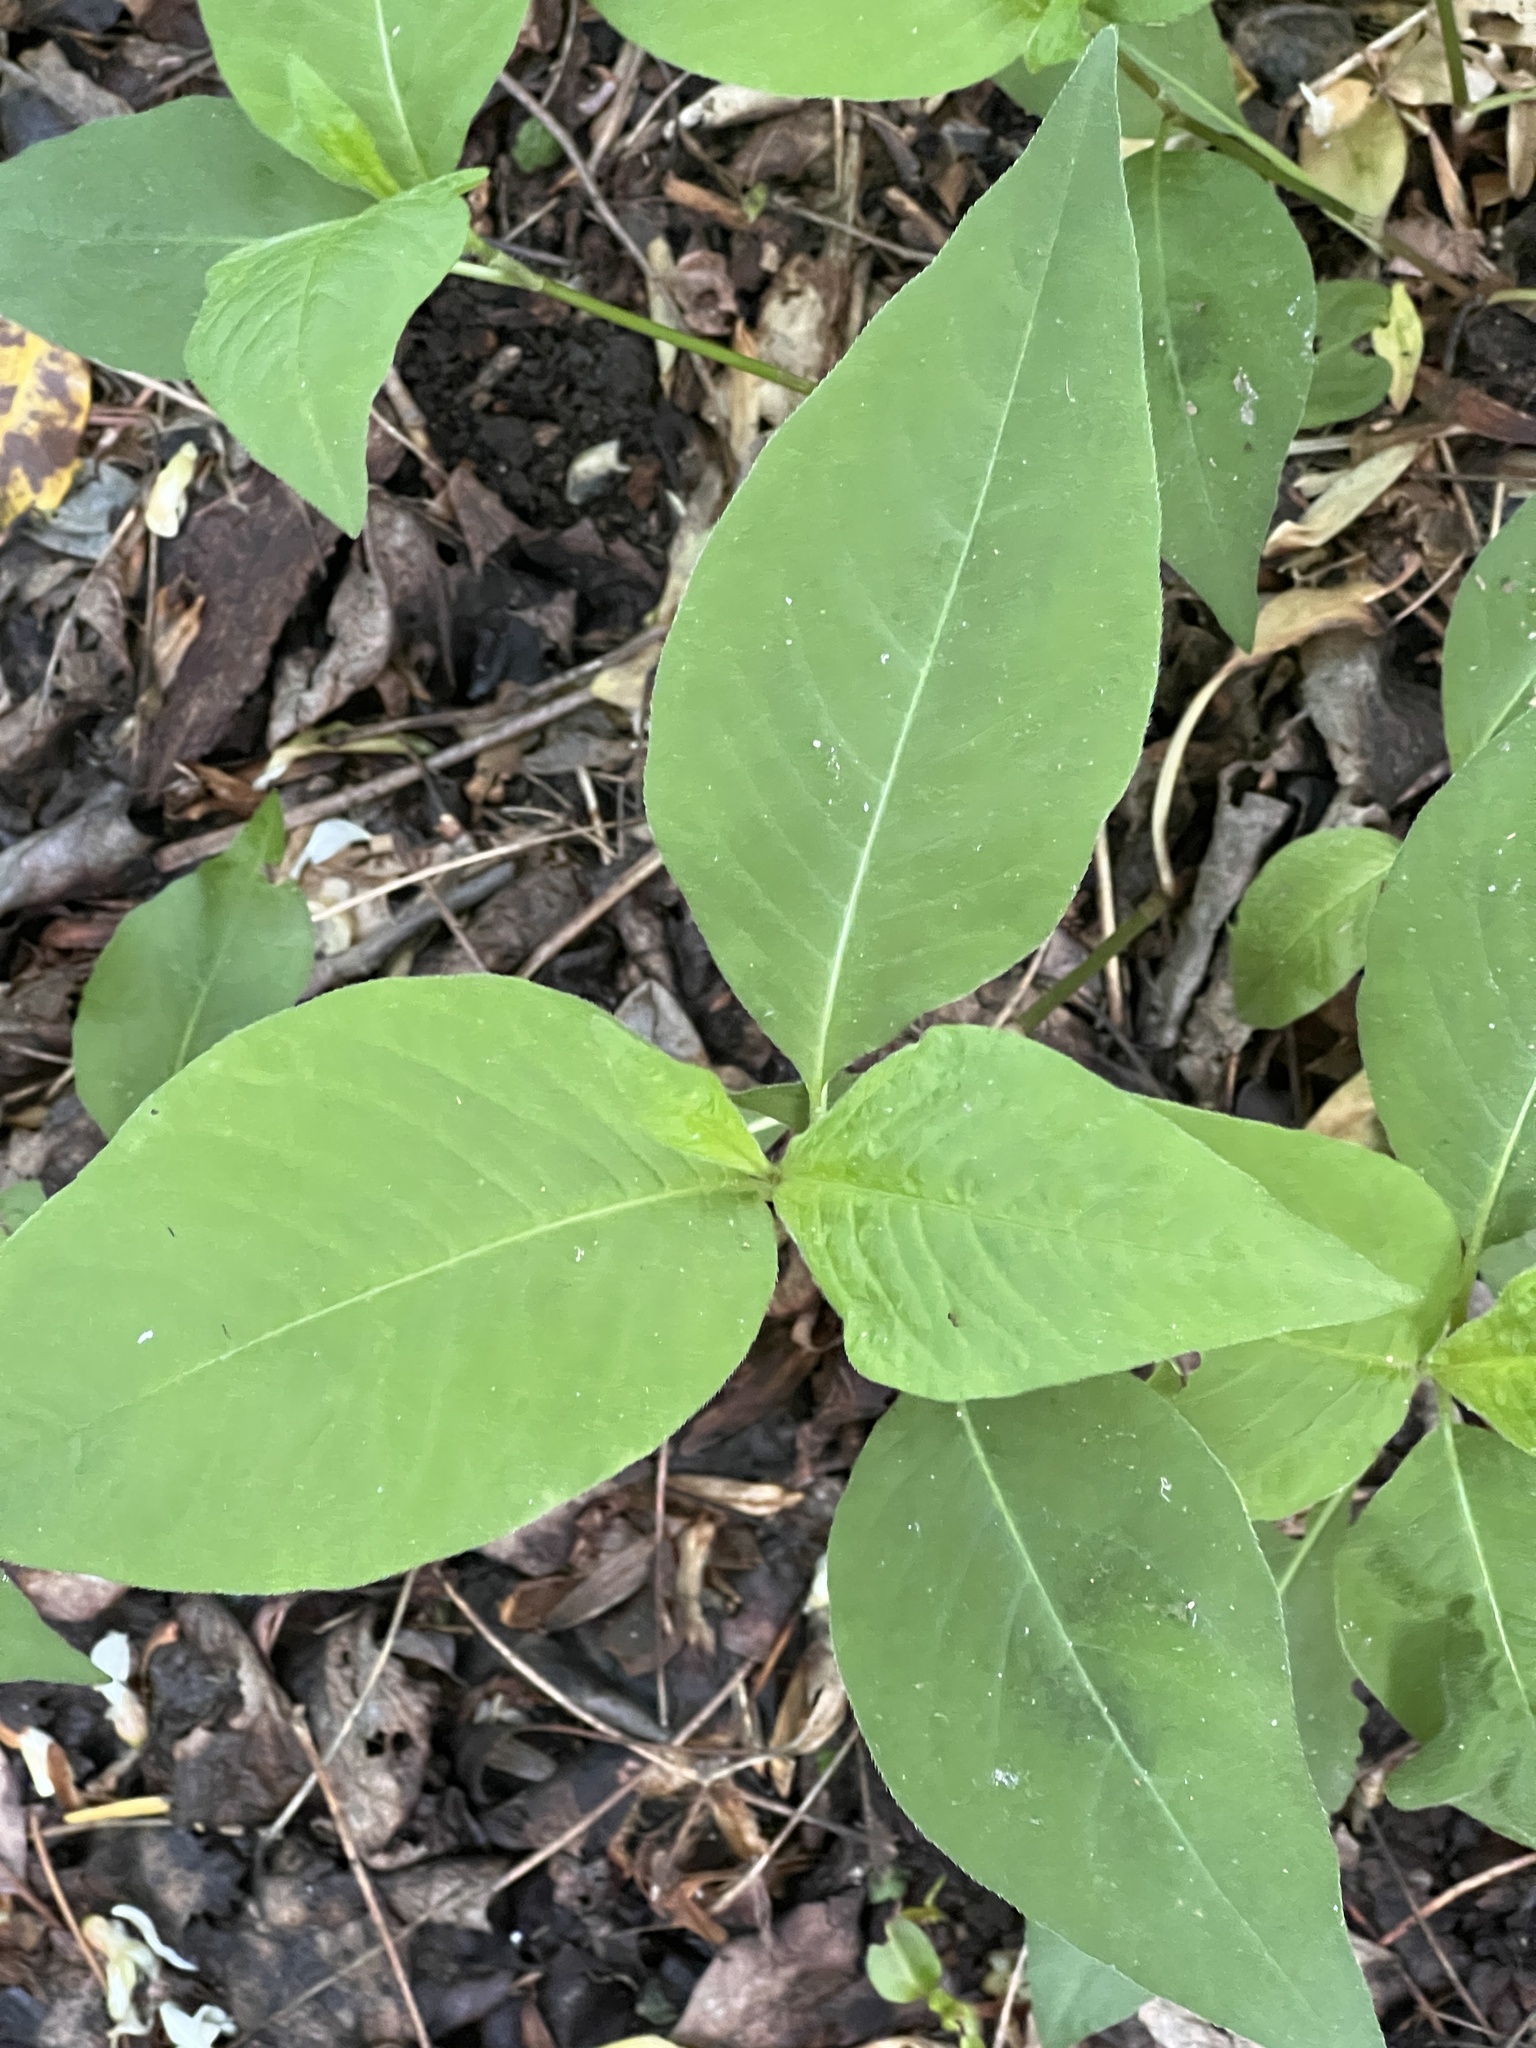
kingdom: Plantae
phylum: Tracheophyta
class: Magnoliopsida
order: Caryophyllales
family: Polygonaceae
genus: Persicaria
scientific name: Persicaria virginiana
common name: Jumpseed
